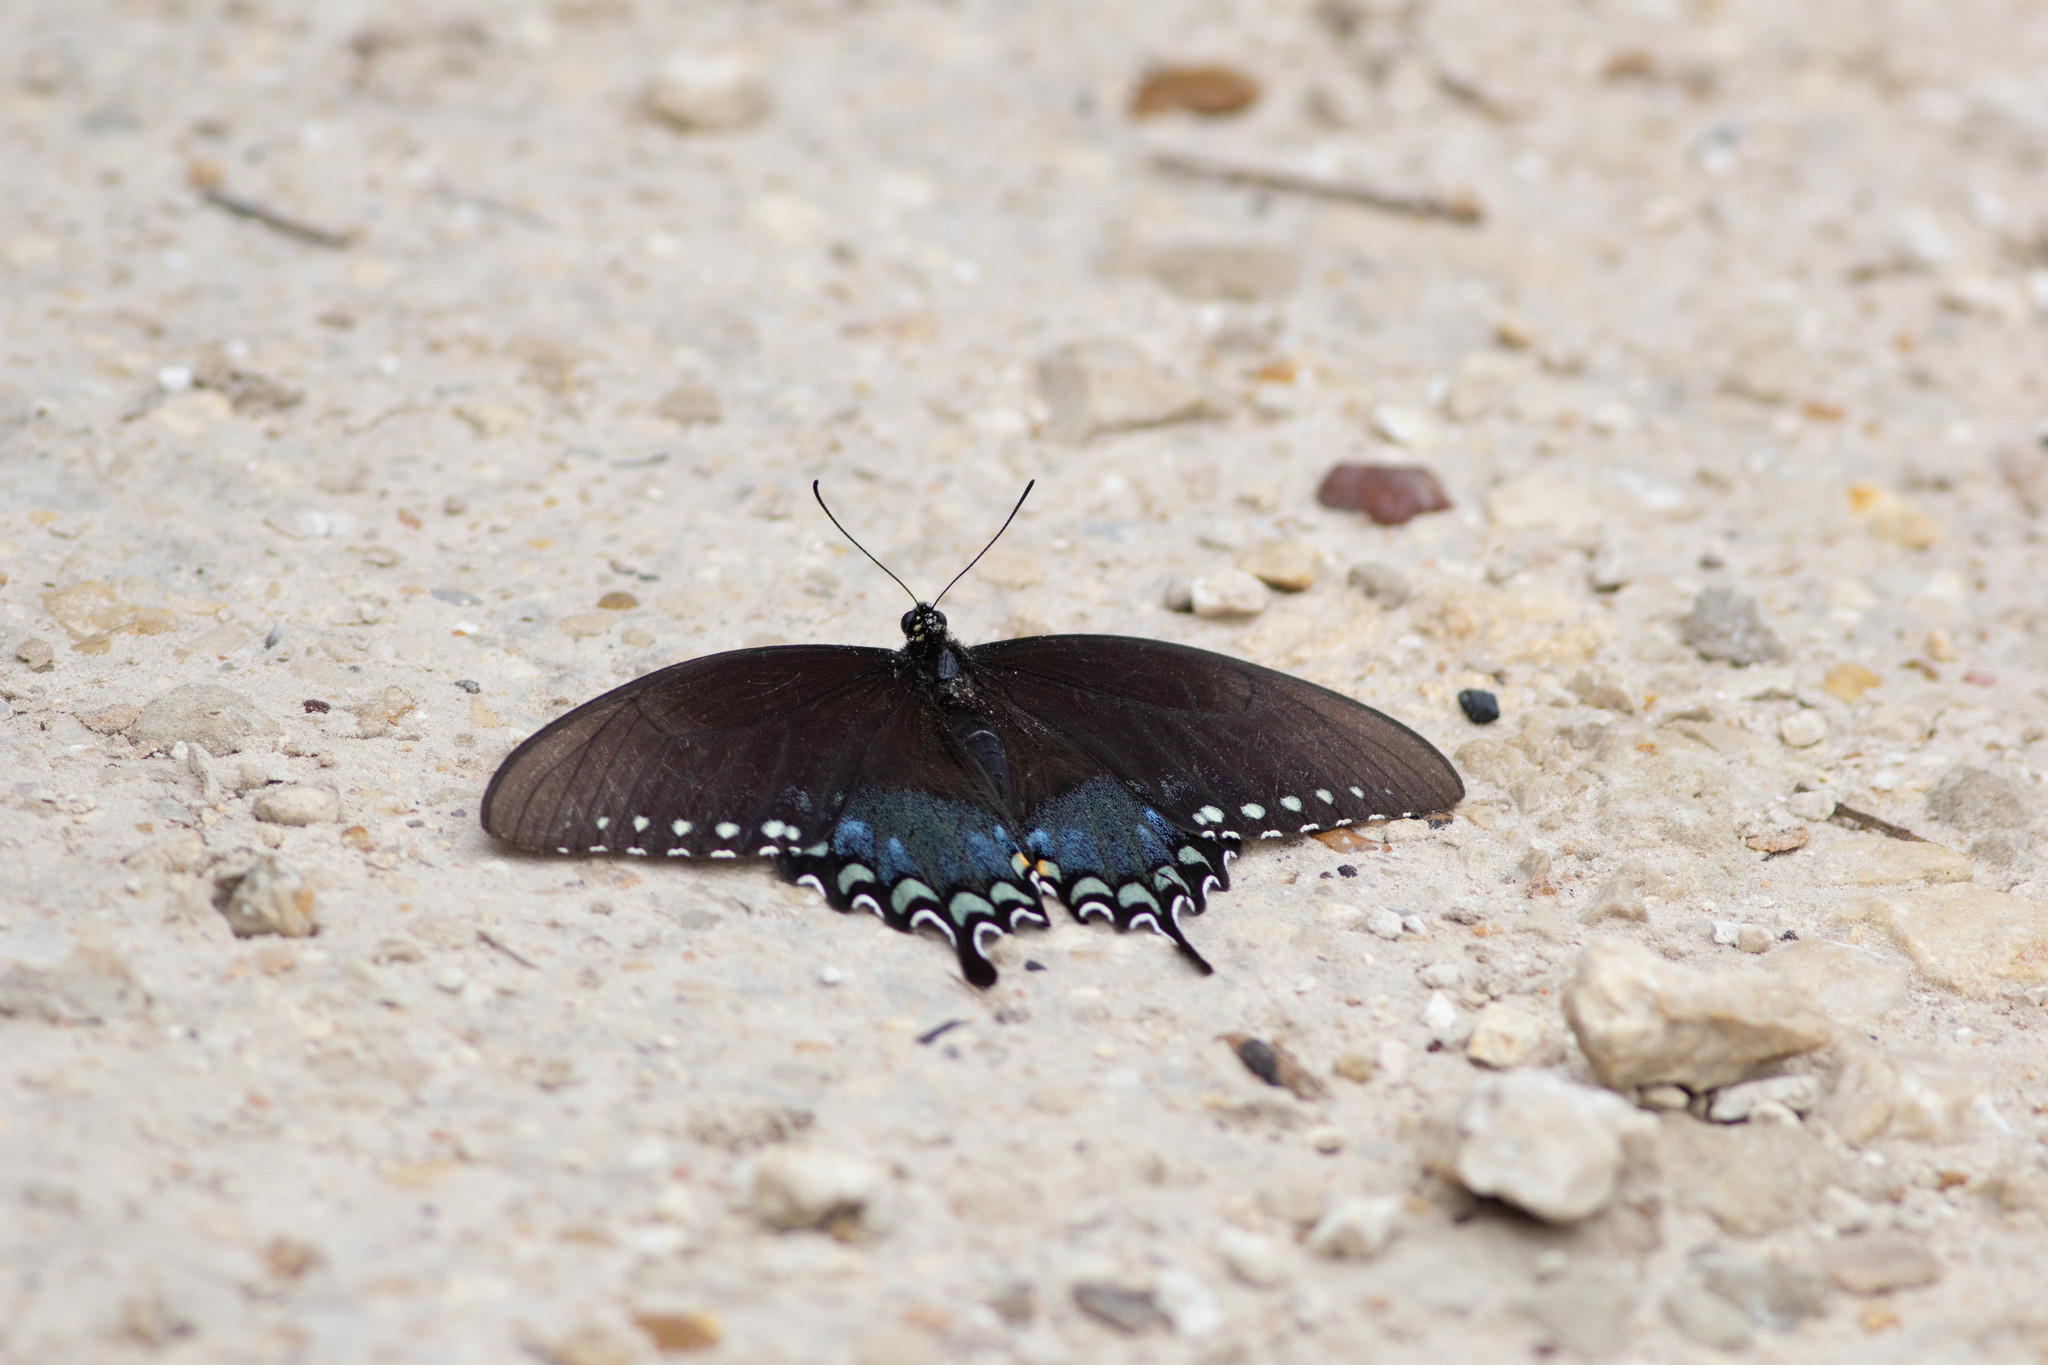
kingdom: Animalia
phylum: Arthropoda
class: Insecta
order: Lepidoptera
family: Papilionidae
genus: Papilio
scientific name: Papilio troilus
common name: Spicebush swallowtail
